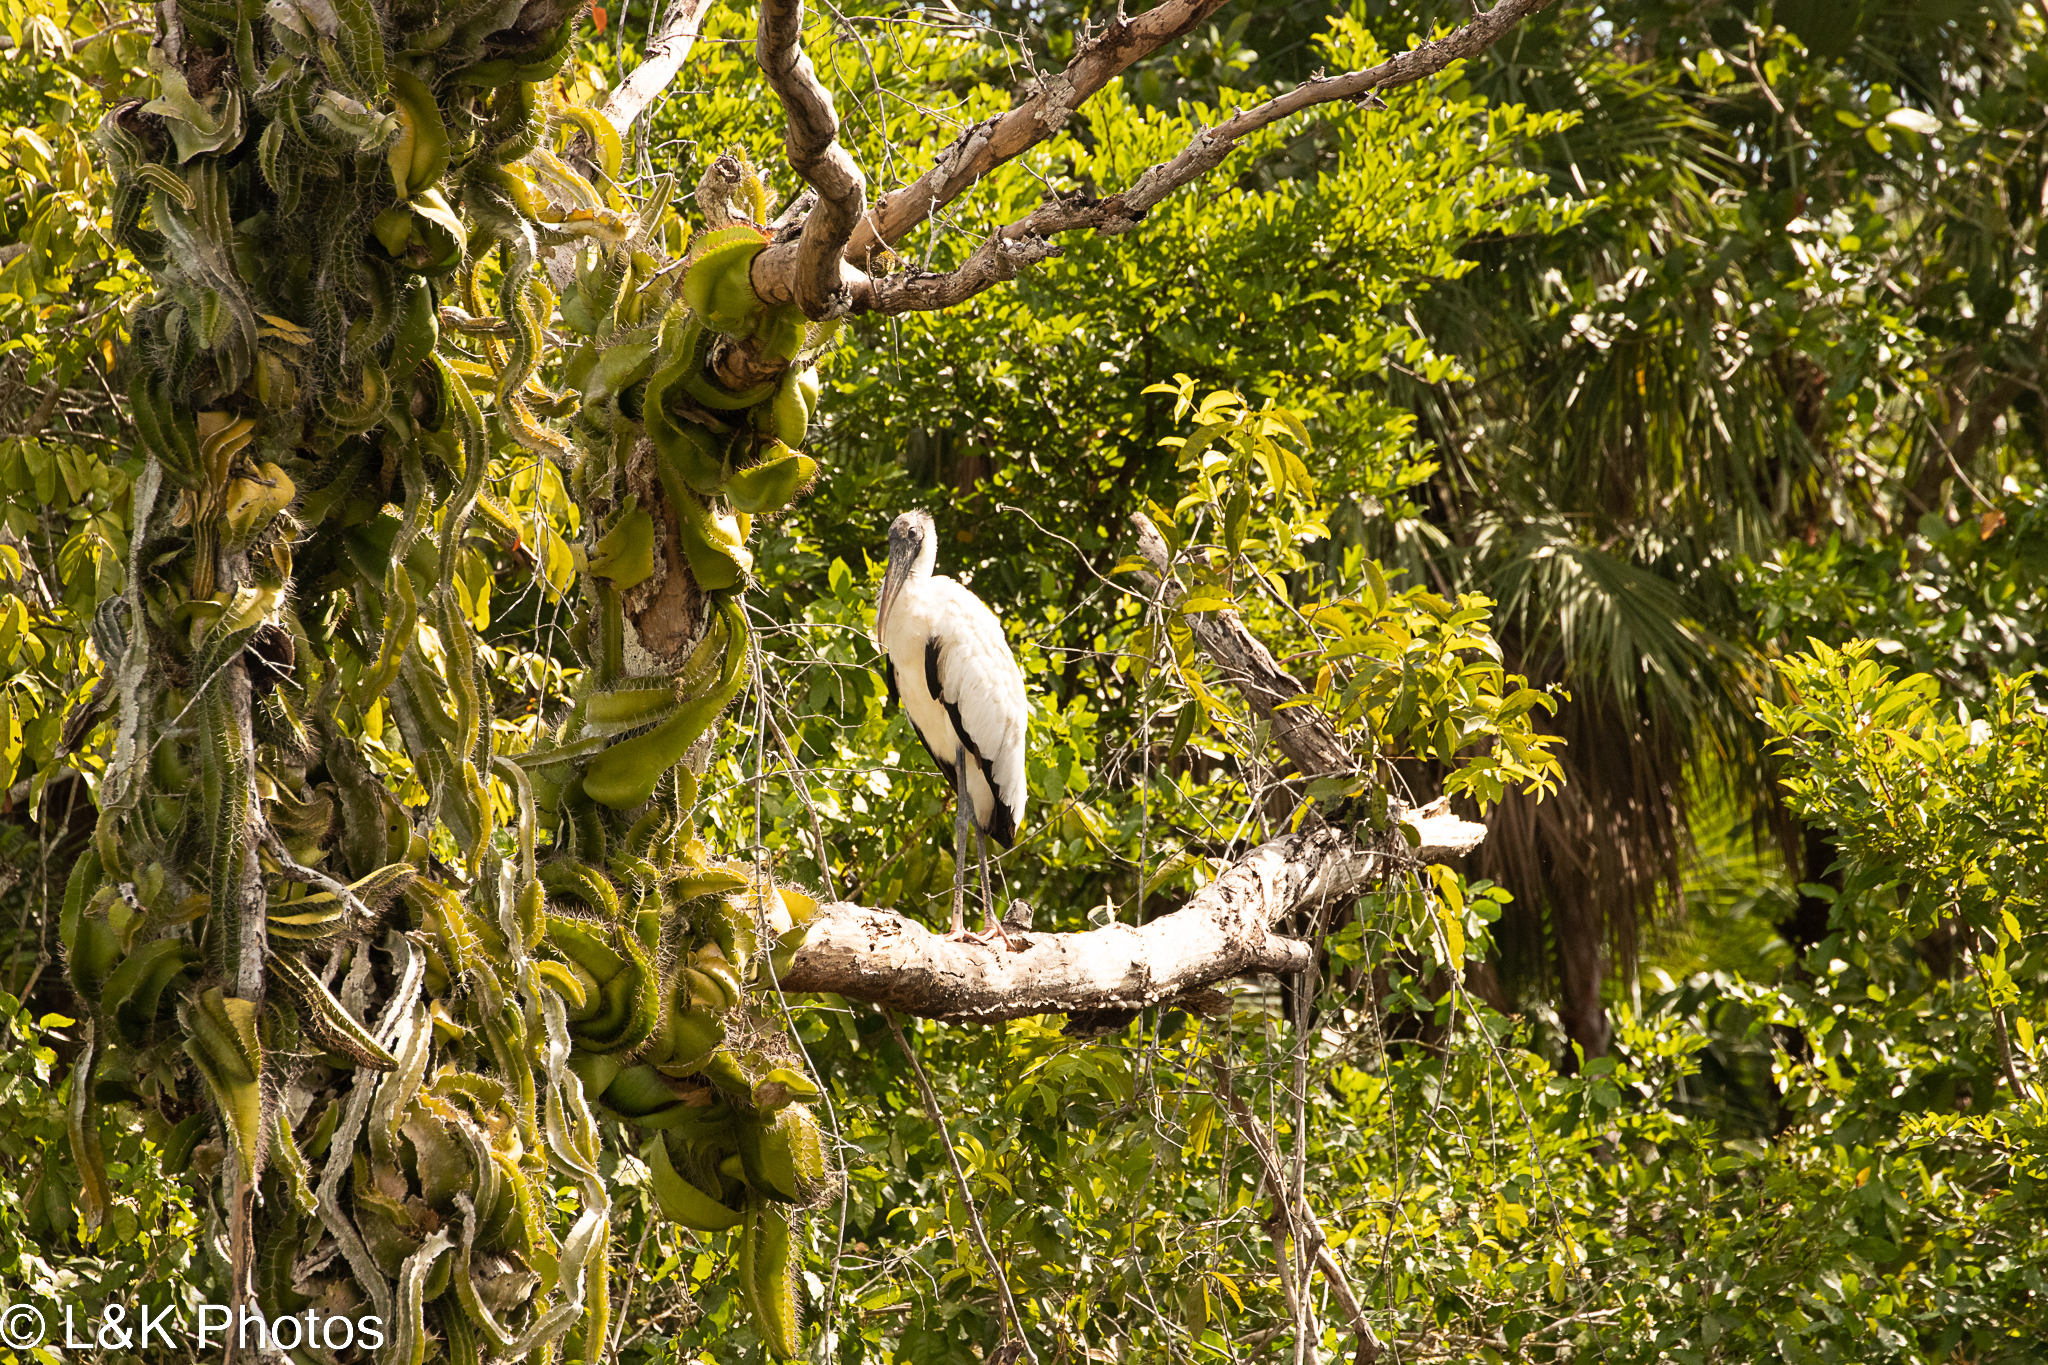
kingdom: Animalia
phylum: Chordata
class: Aves
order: Ciconiiformes
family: Ciconiidae
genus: Mycteria
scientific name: Mycteria americana
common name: Wood stork
